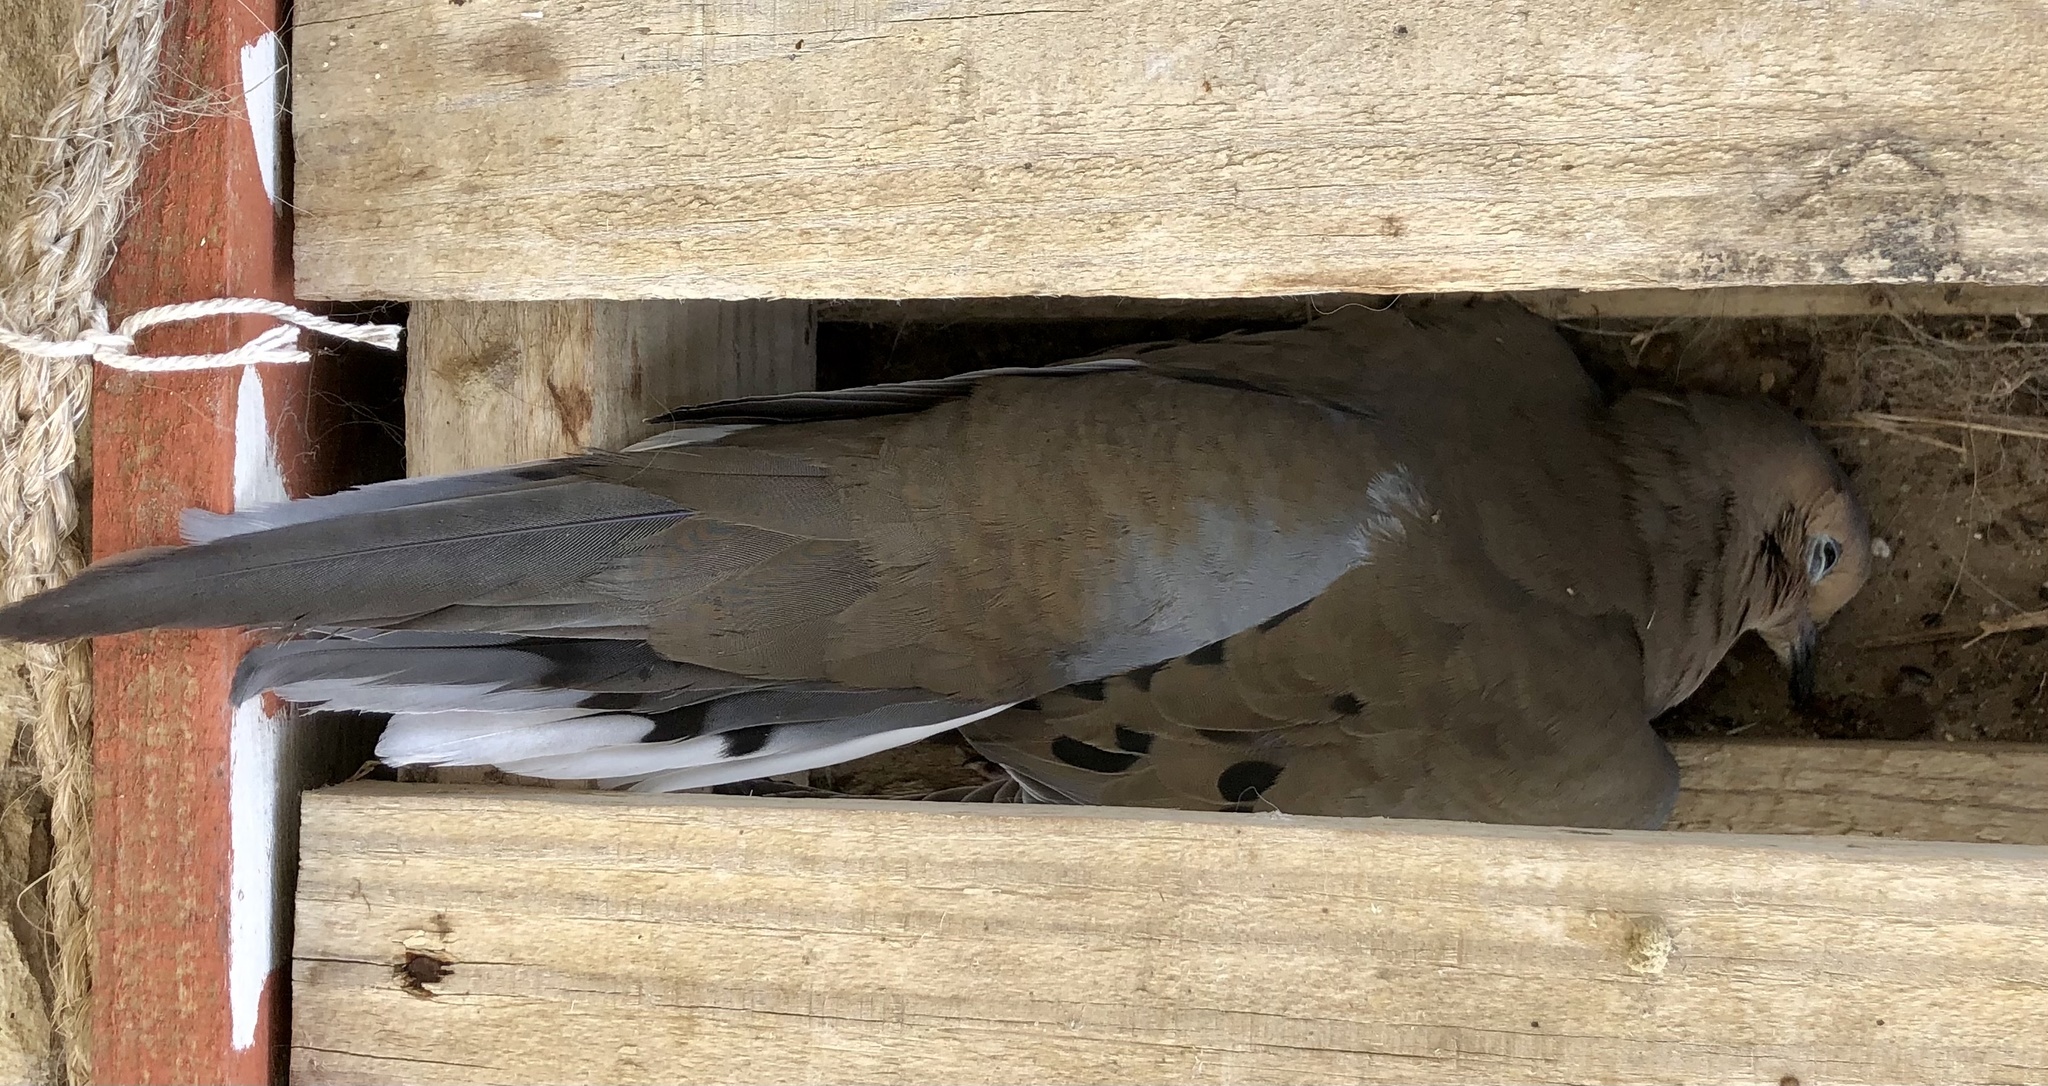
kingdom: Animalia
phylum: Chordata
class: Aves
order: Columbiformes
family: Columbidae
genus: Zenaida
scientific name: Zenaida macroura
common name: Mourning dove
